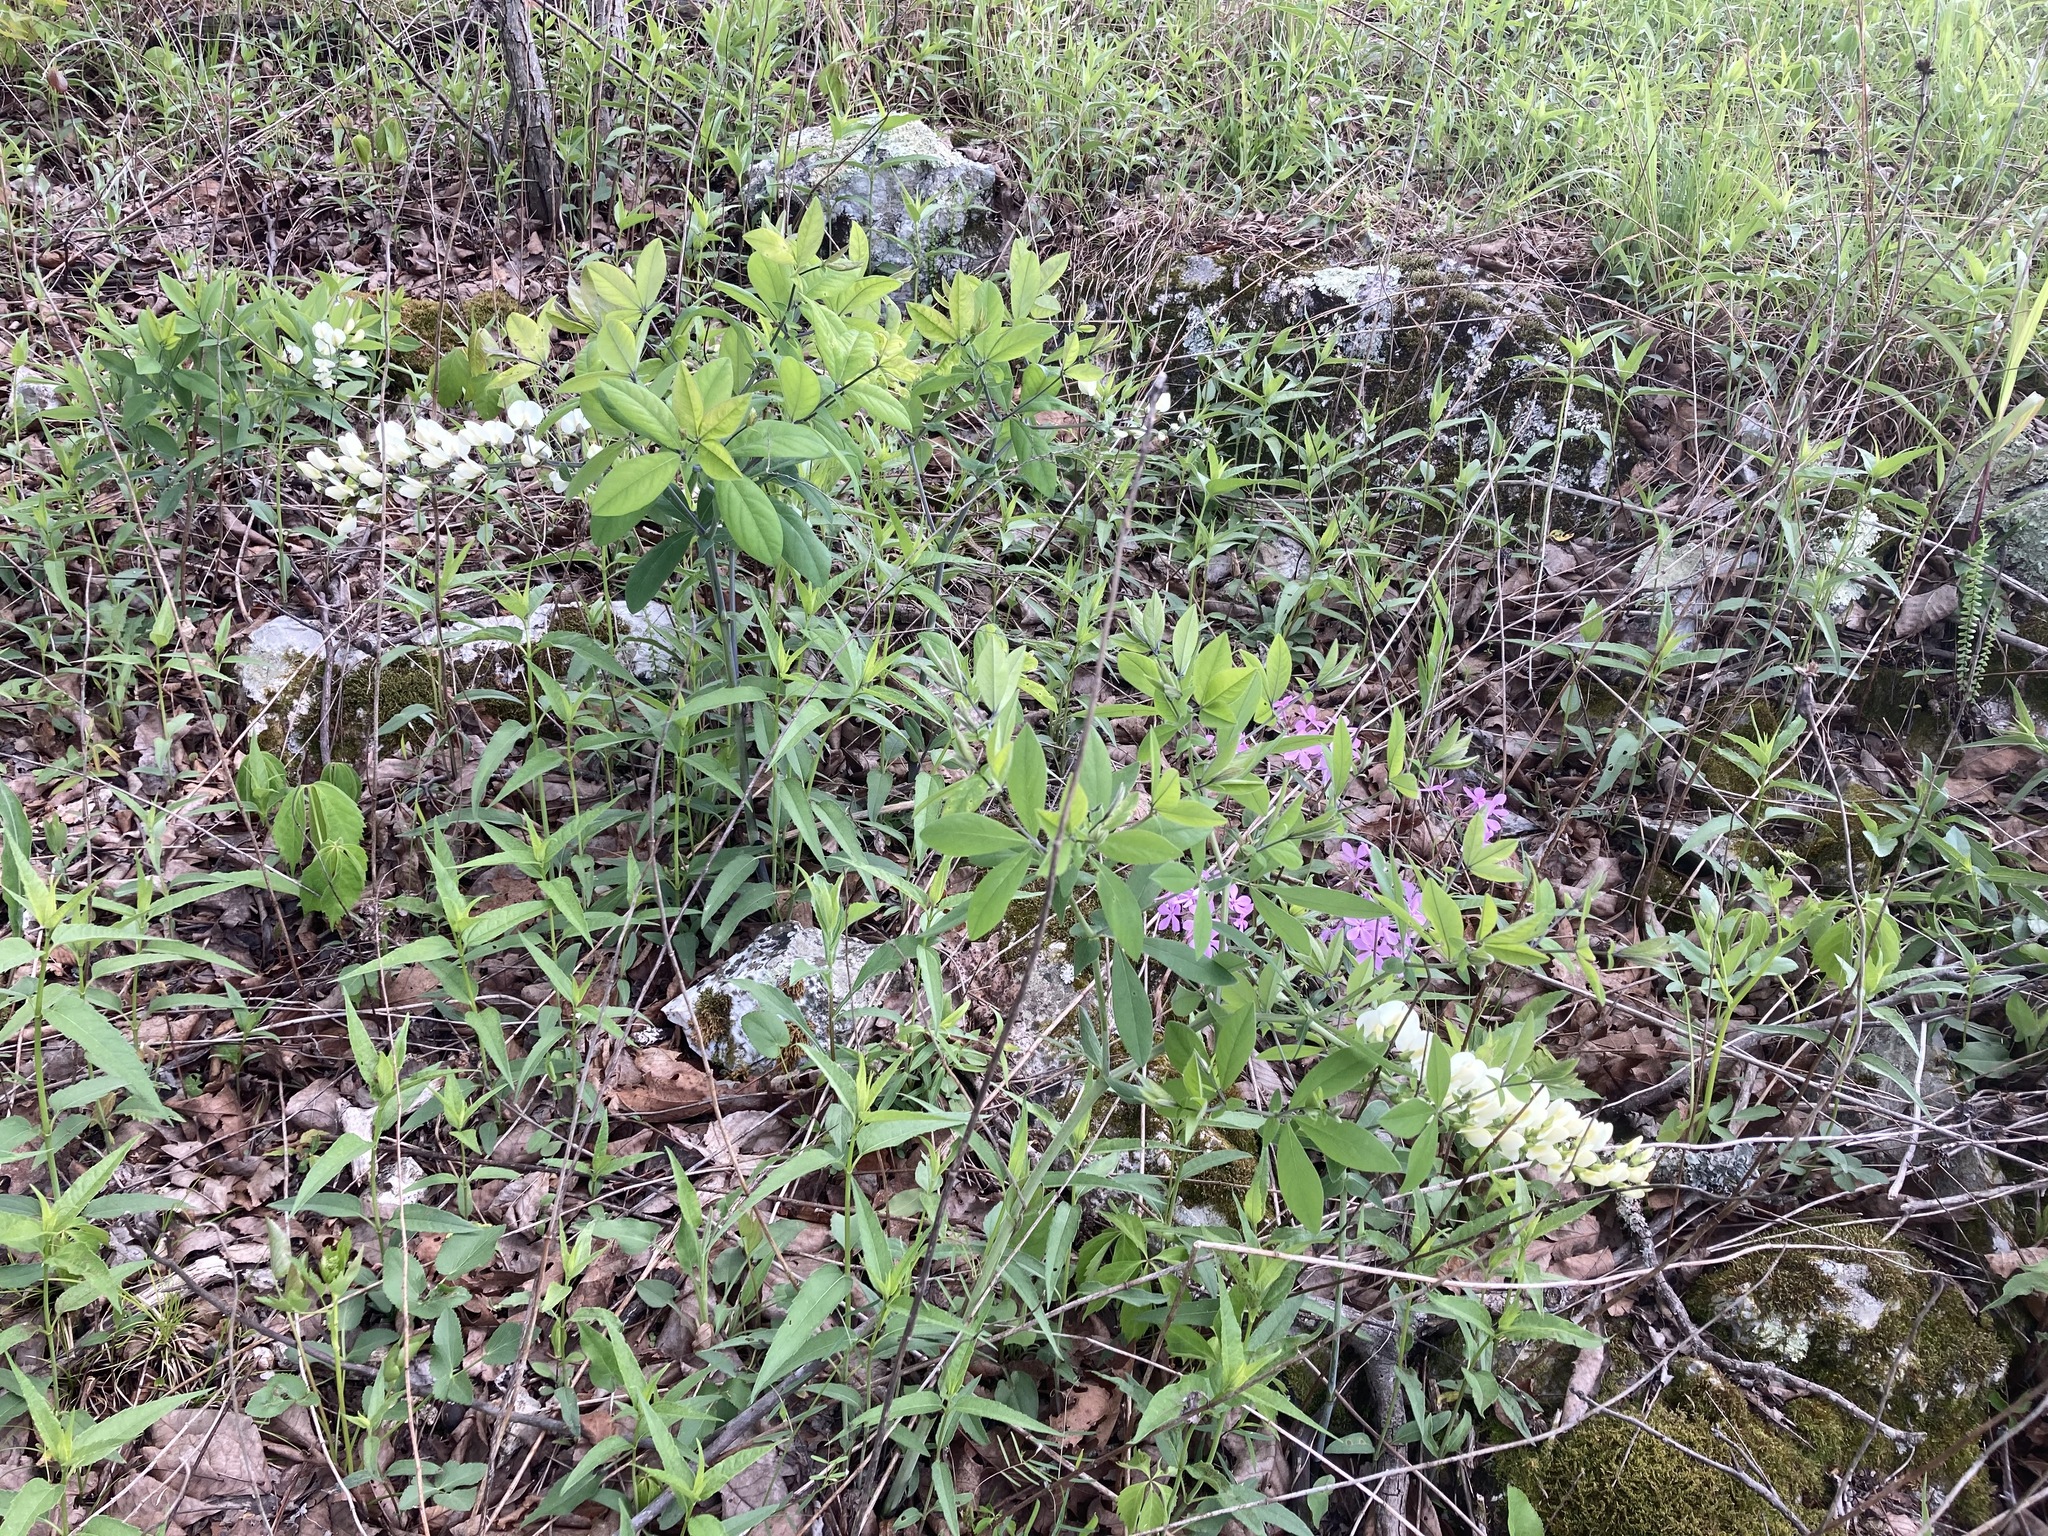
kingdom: Plantae
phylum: Tracheophyta
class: Magnoliopsida
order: Fabales
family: Fabaceae
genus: Baptisia
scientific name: Baptisia bracteata
